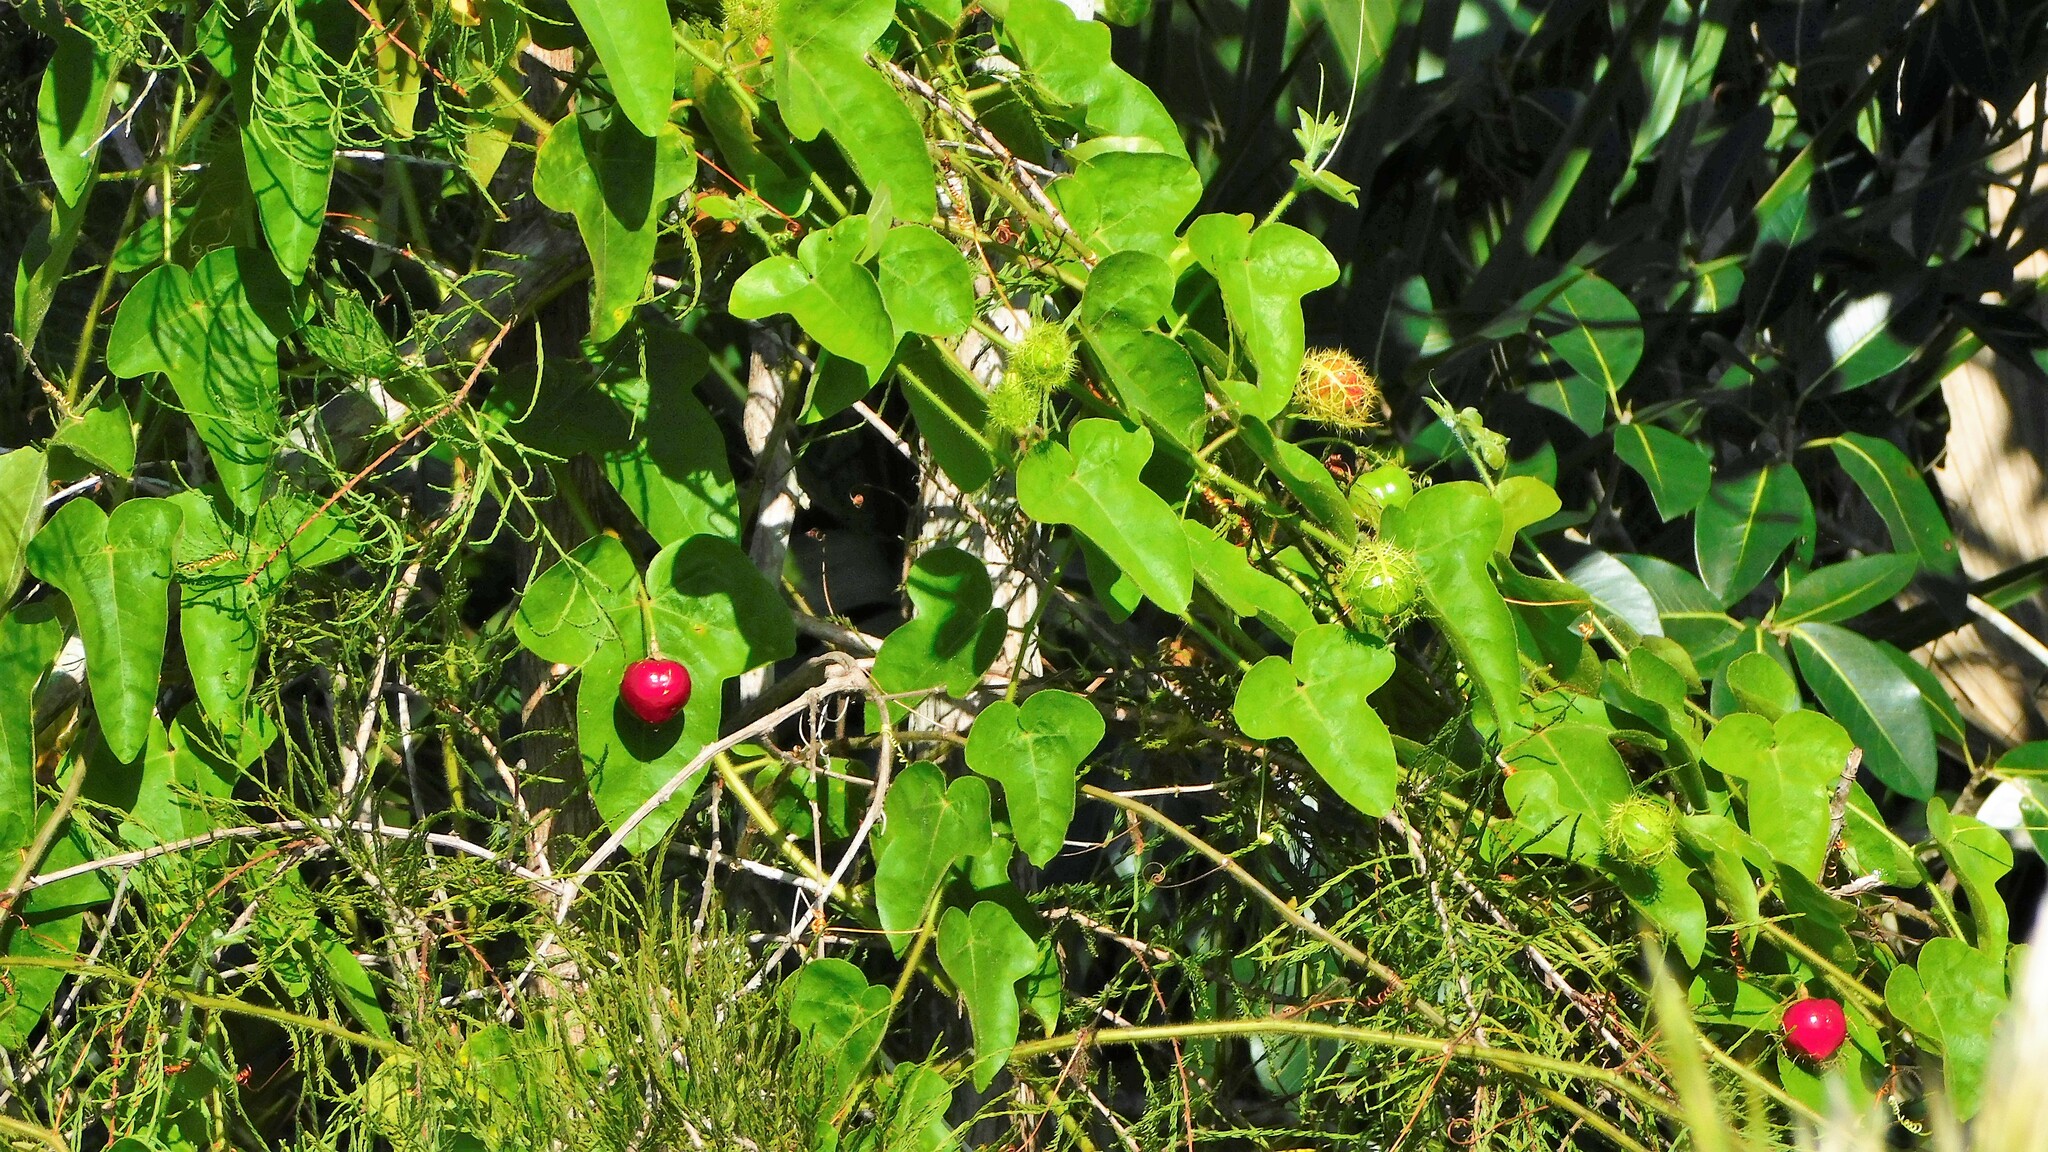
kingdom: Plantae
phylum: Tracheophyta
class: Magnoliopsida
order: Malpighiales
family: Passifloraceae
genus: Passiflora
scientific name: Passiflora ciliata
